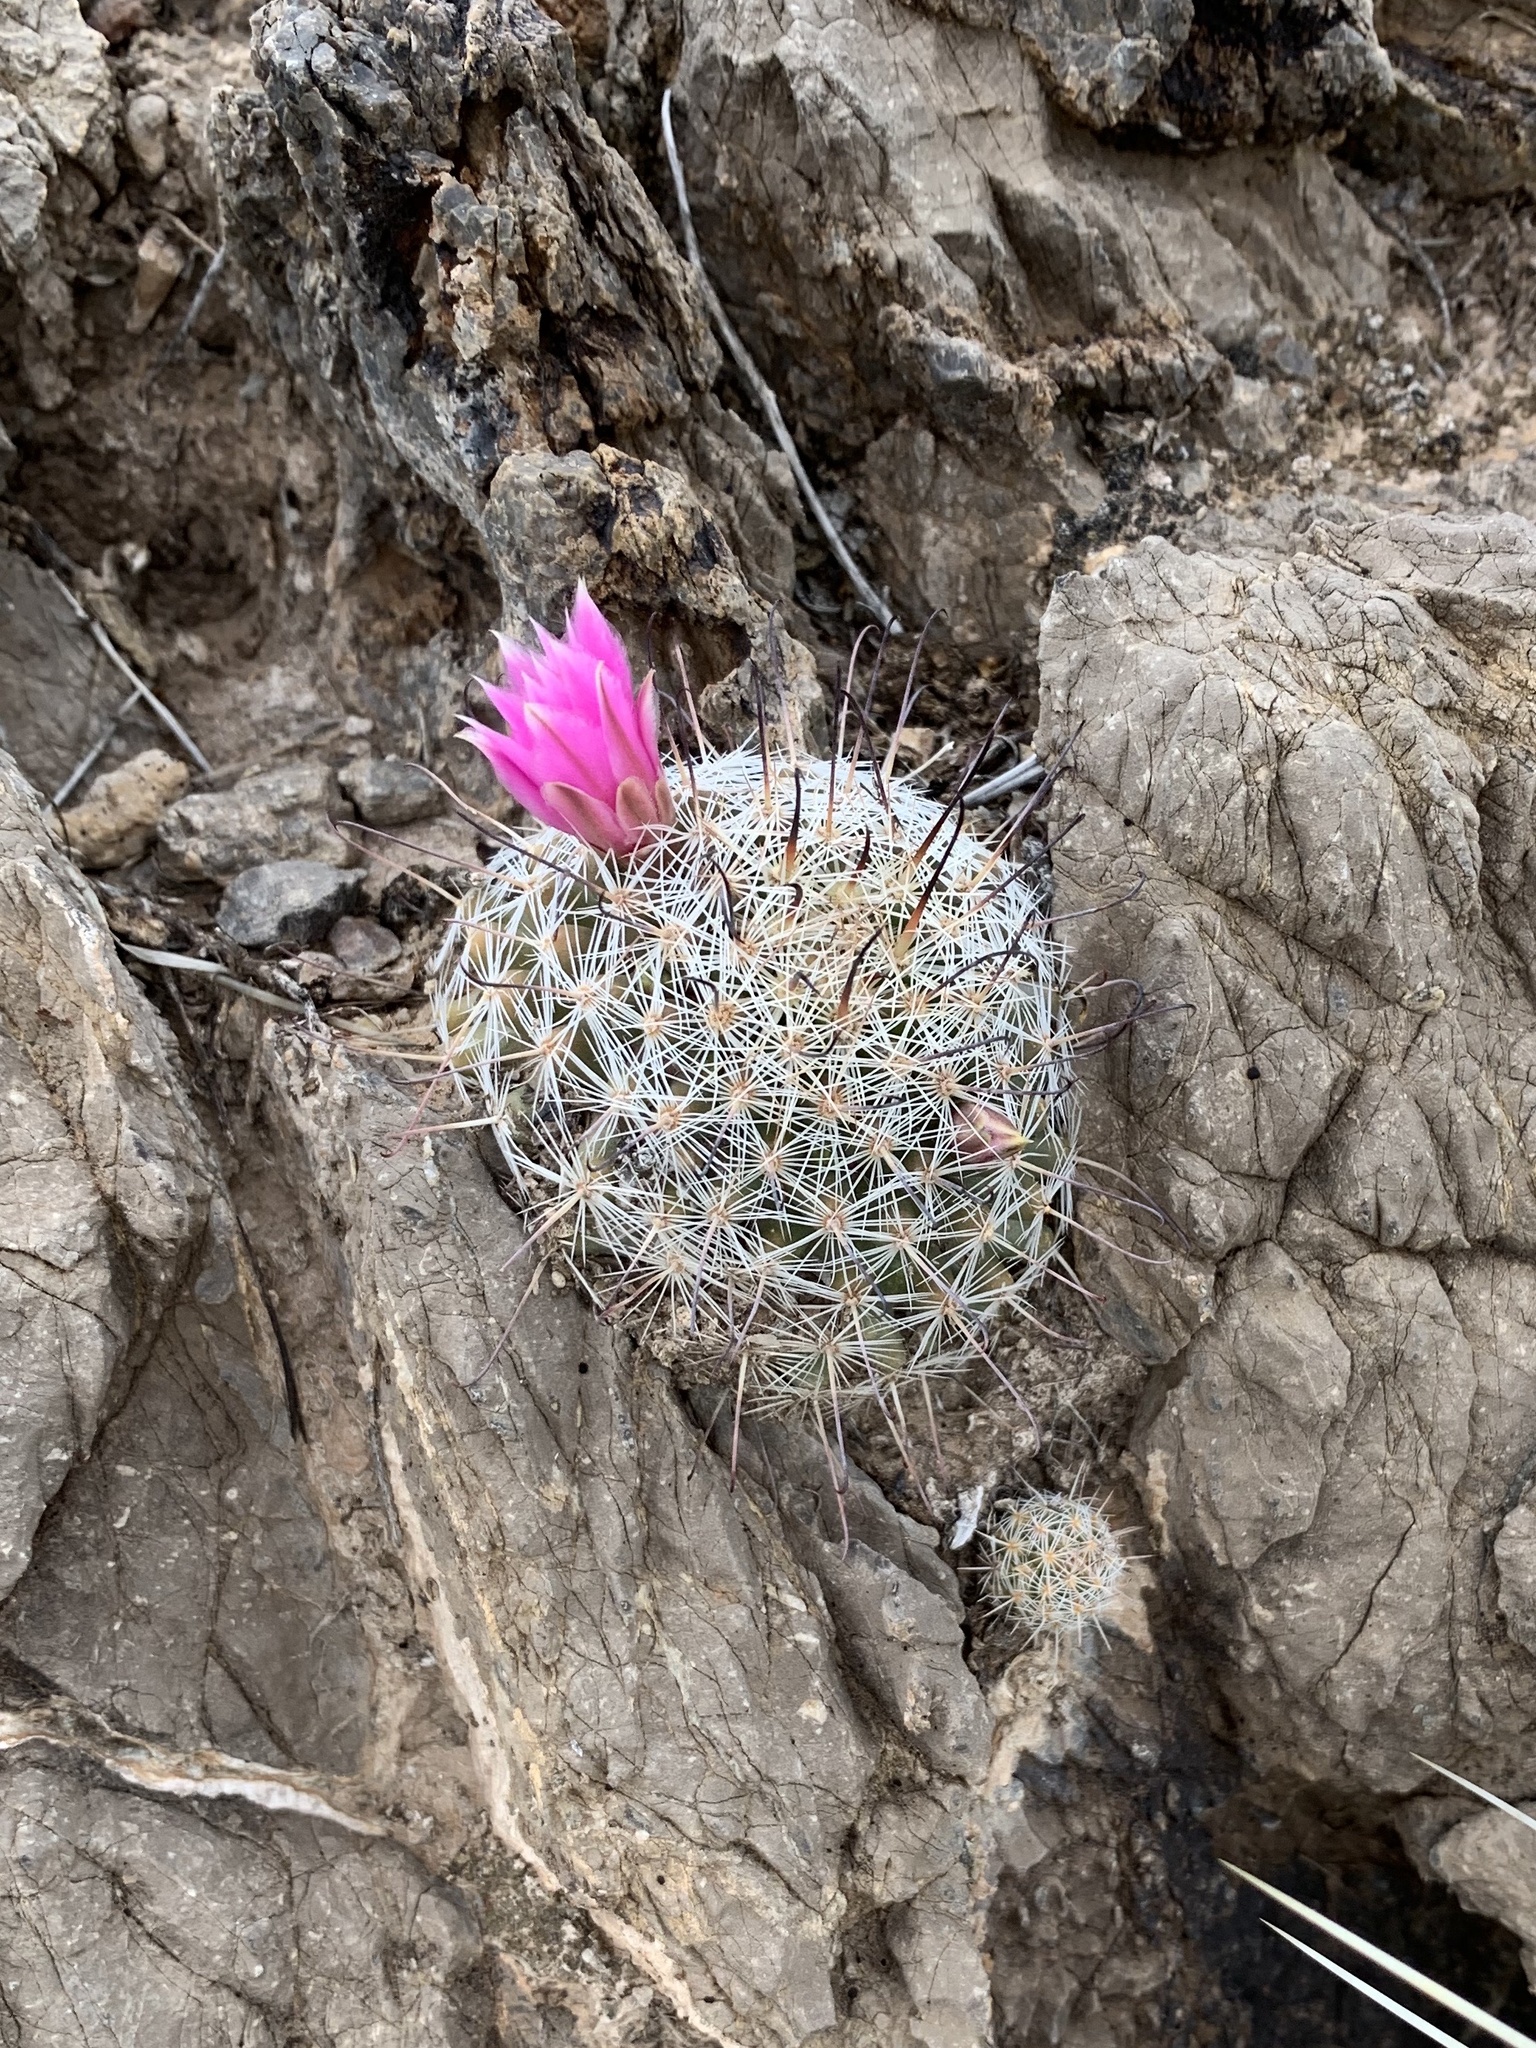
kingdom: Plantae
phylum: Tracheophyta
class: Magnoliopsida
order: Caryophyllales
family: Cactaceae
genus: Cochemiea
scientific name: Cochemiea grahamii
